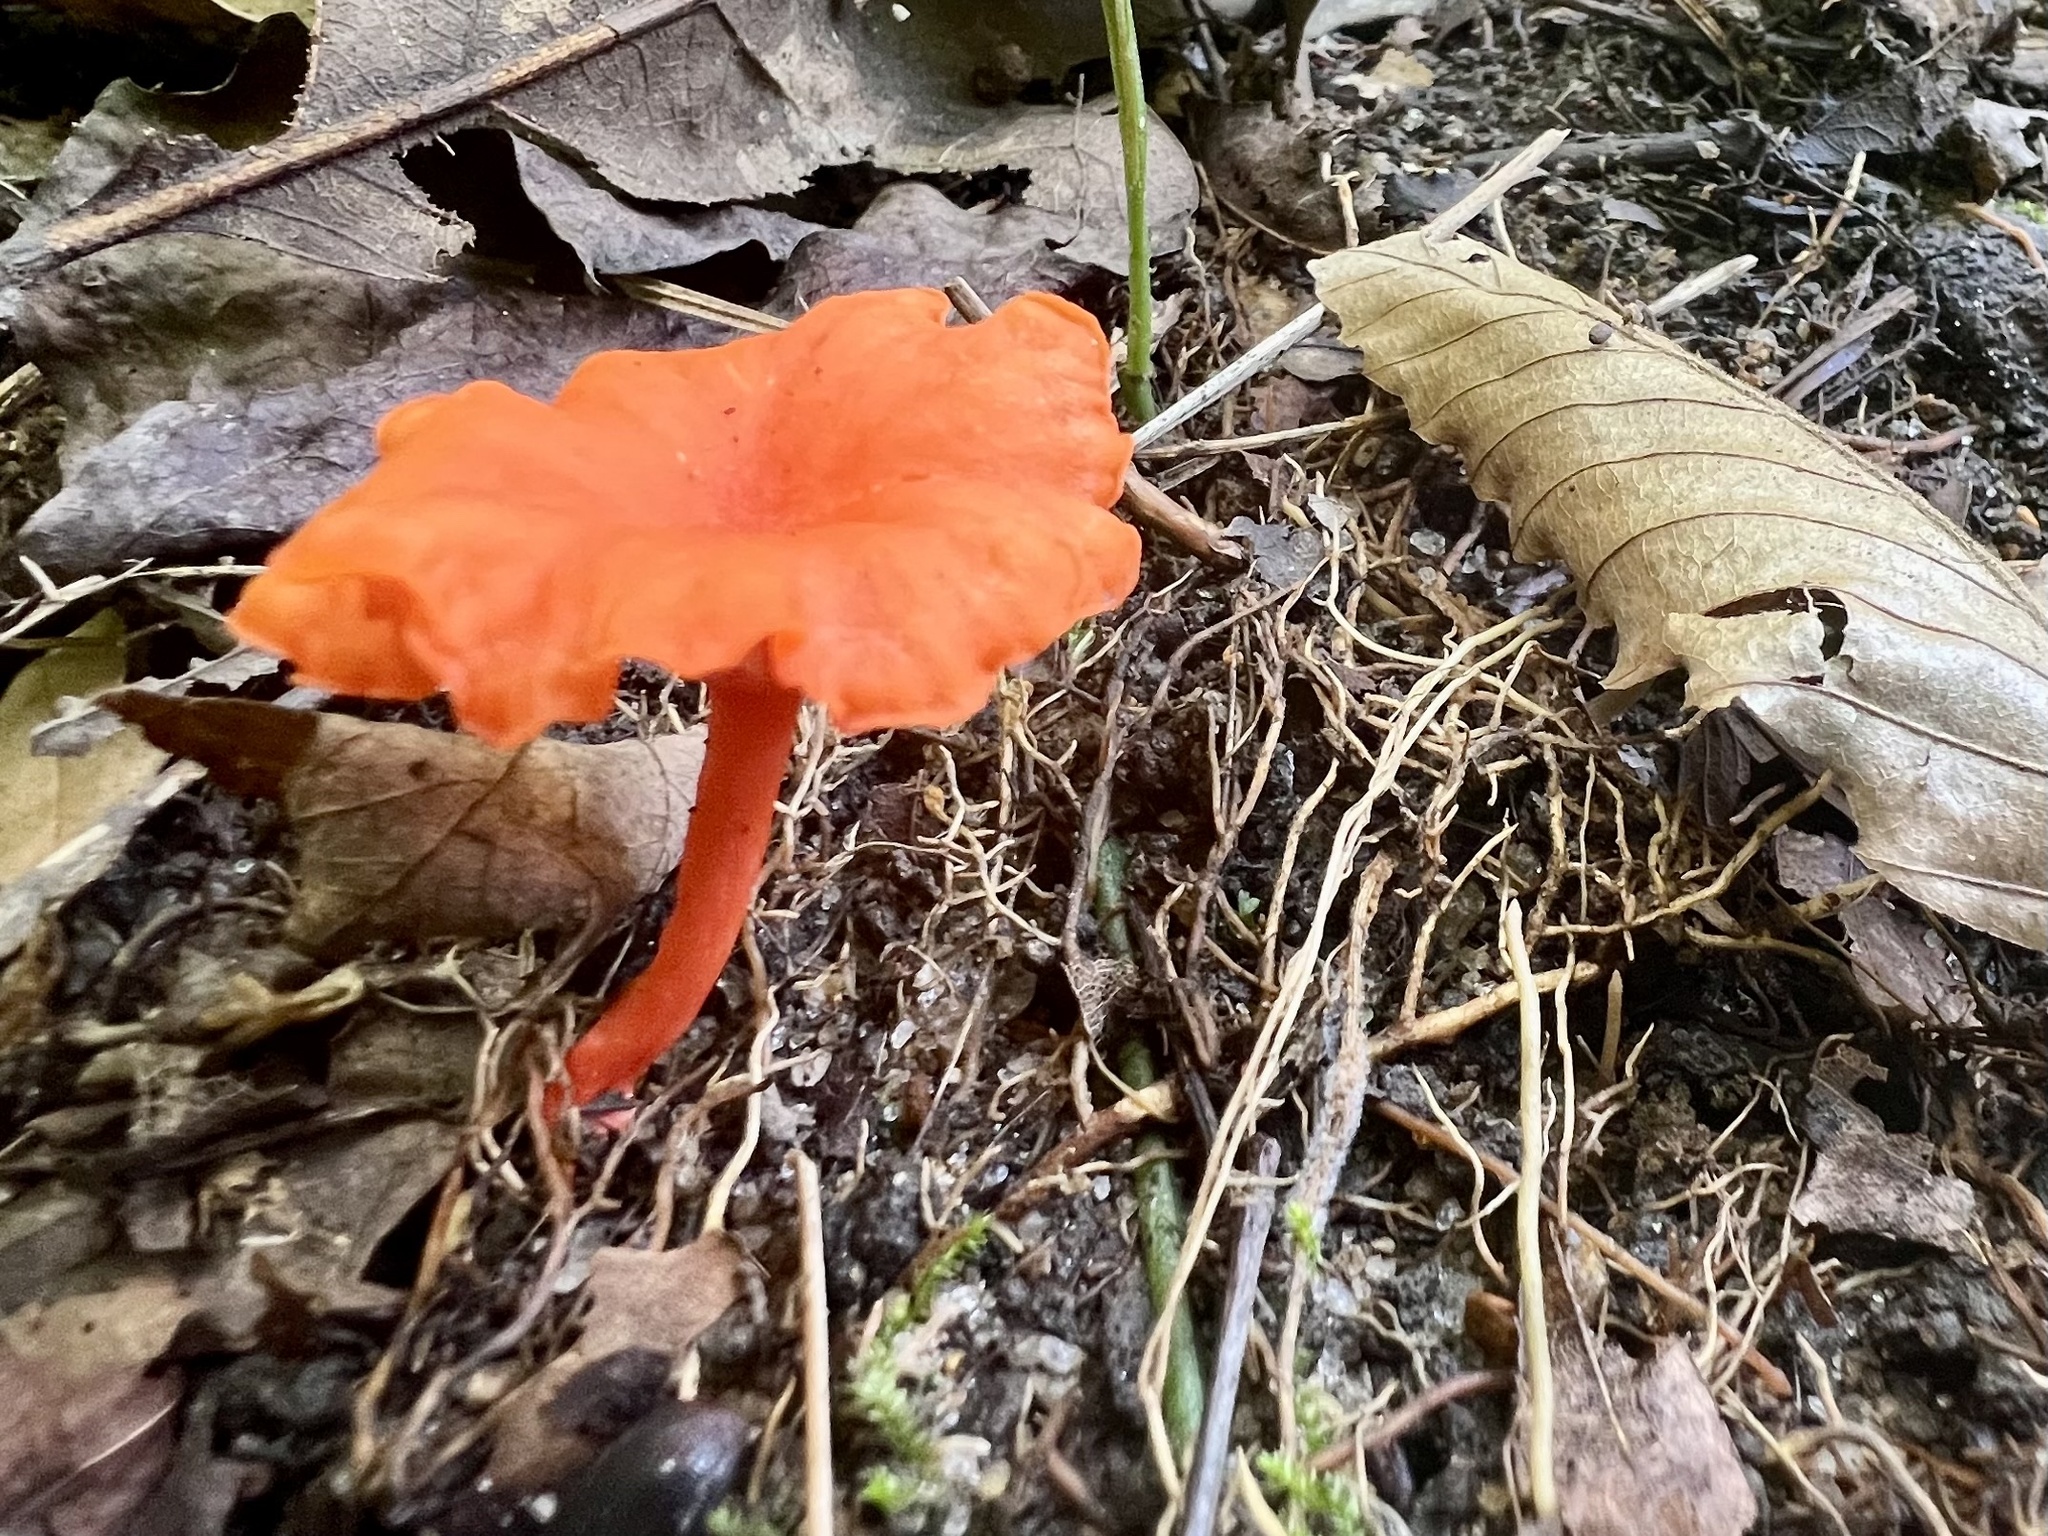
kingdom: Fungi
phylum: Basidiomycota
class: Agaricomycetes
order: Cantharellales
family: Hydnaceae
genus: Cantharellus
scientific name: Cantharellus cinnabarinus
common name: Cinnabar chanterelle
